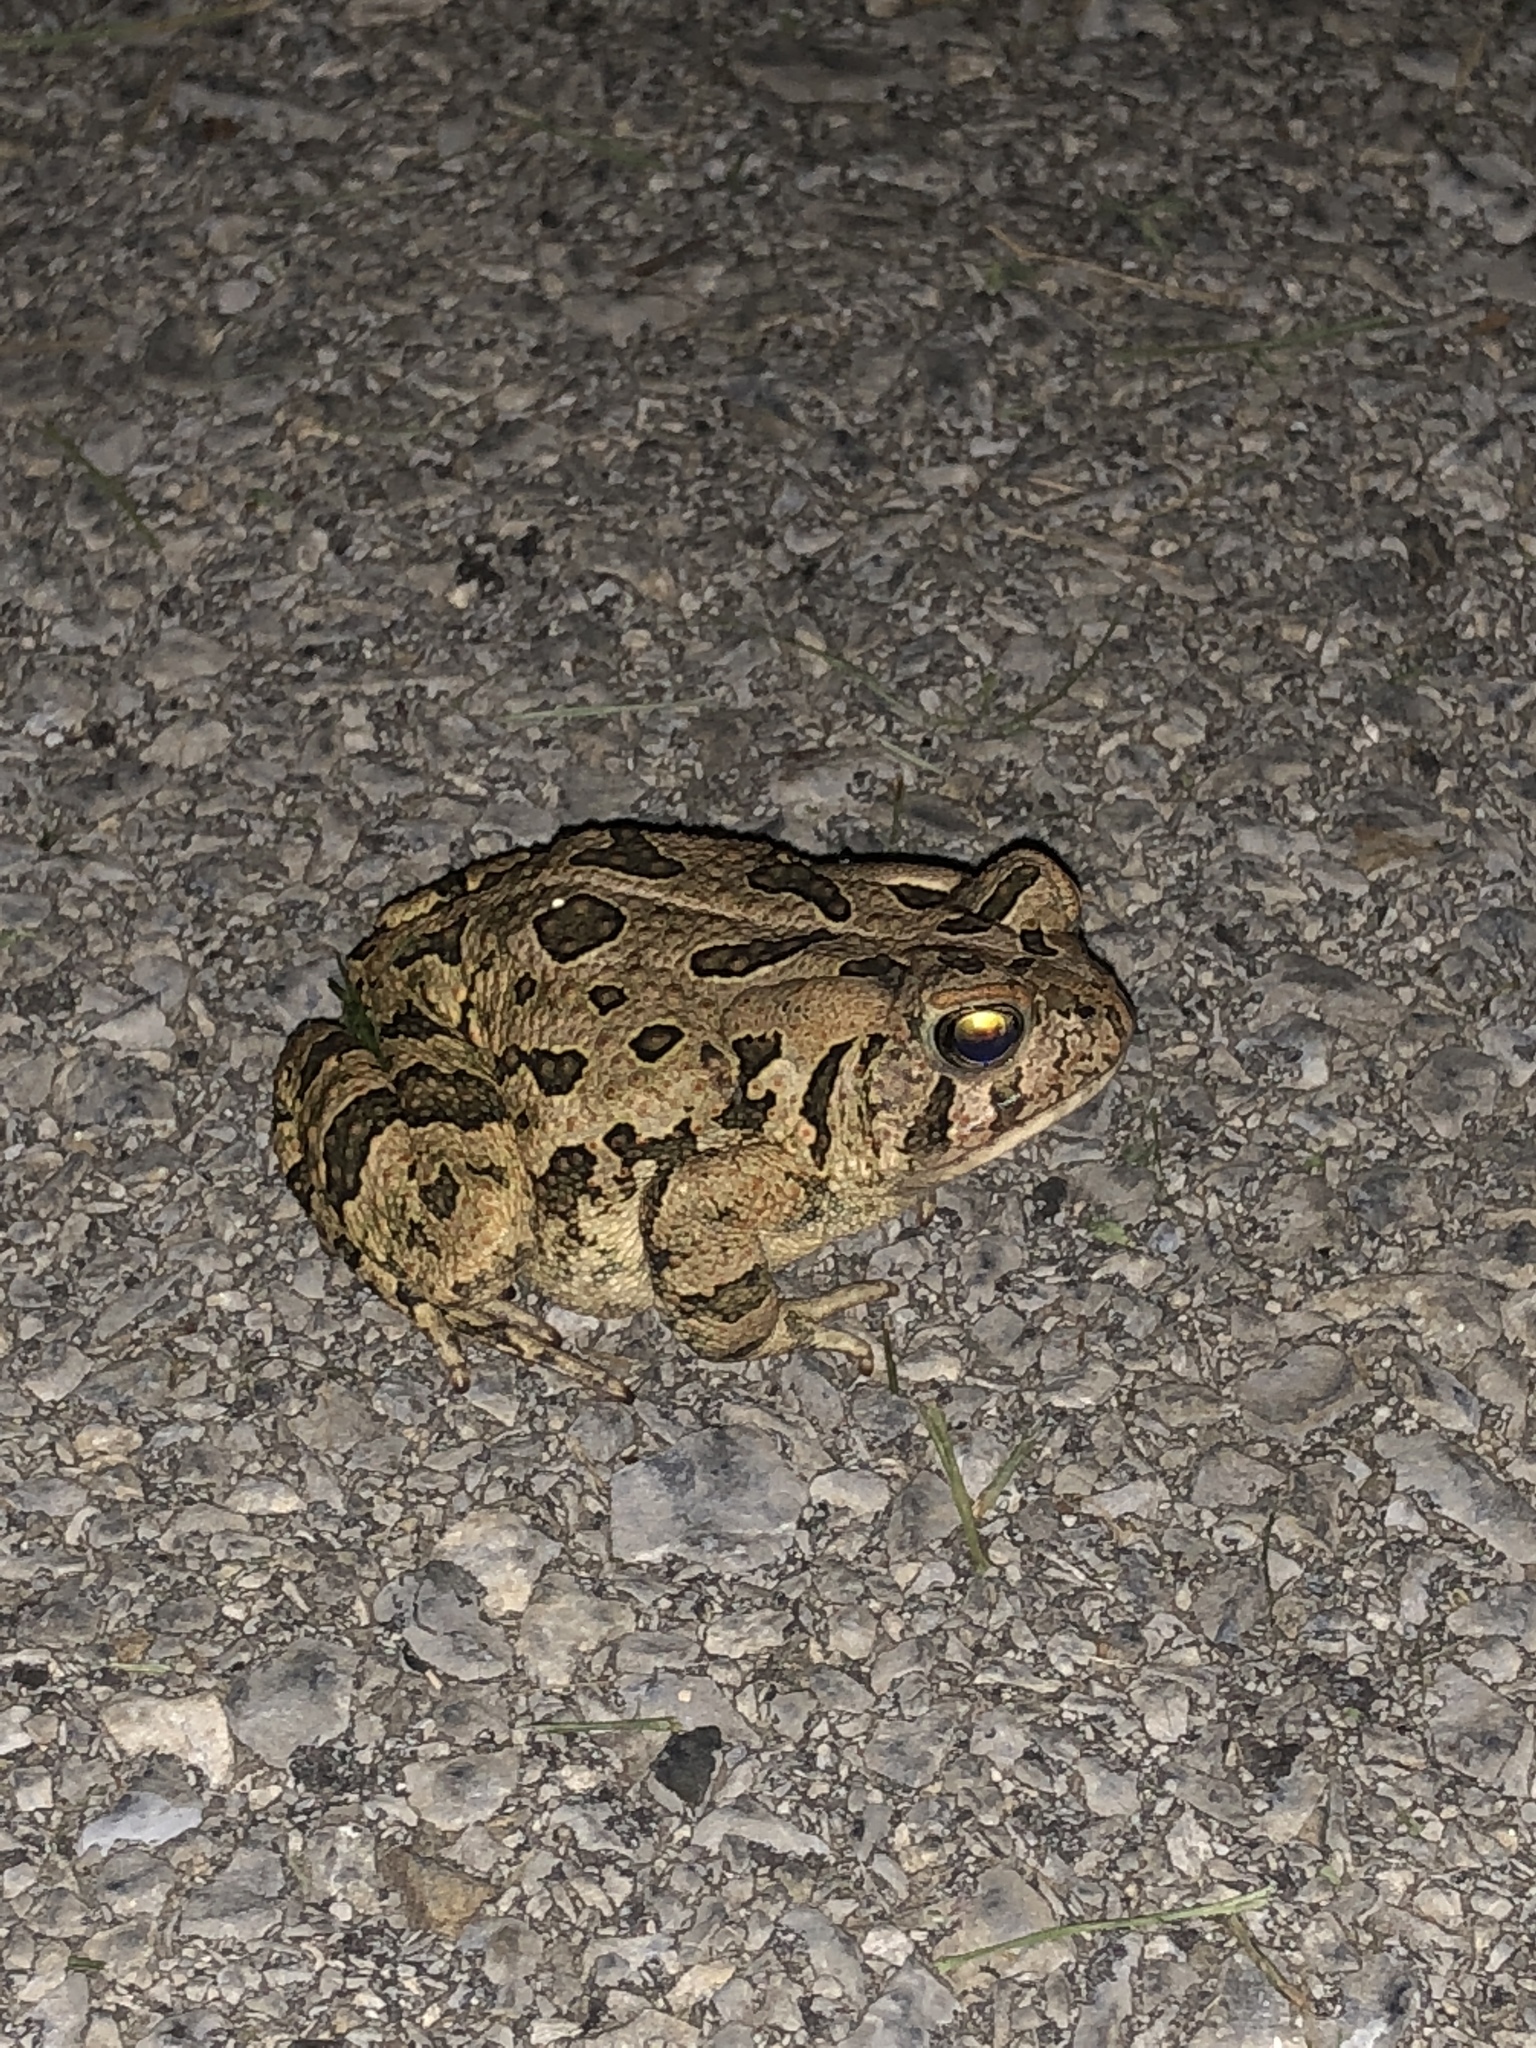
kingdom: Animalia
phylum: Chordata
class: Amphibia
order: Anura
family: Bufonidae
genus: Anaxyrus
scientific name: Anaxyrus fowleri
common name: Fowler's toad
